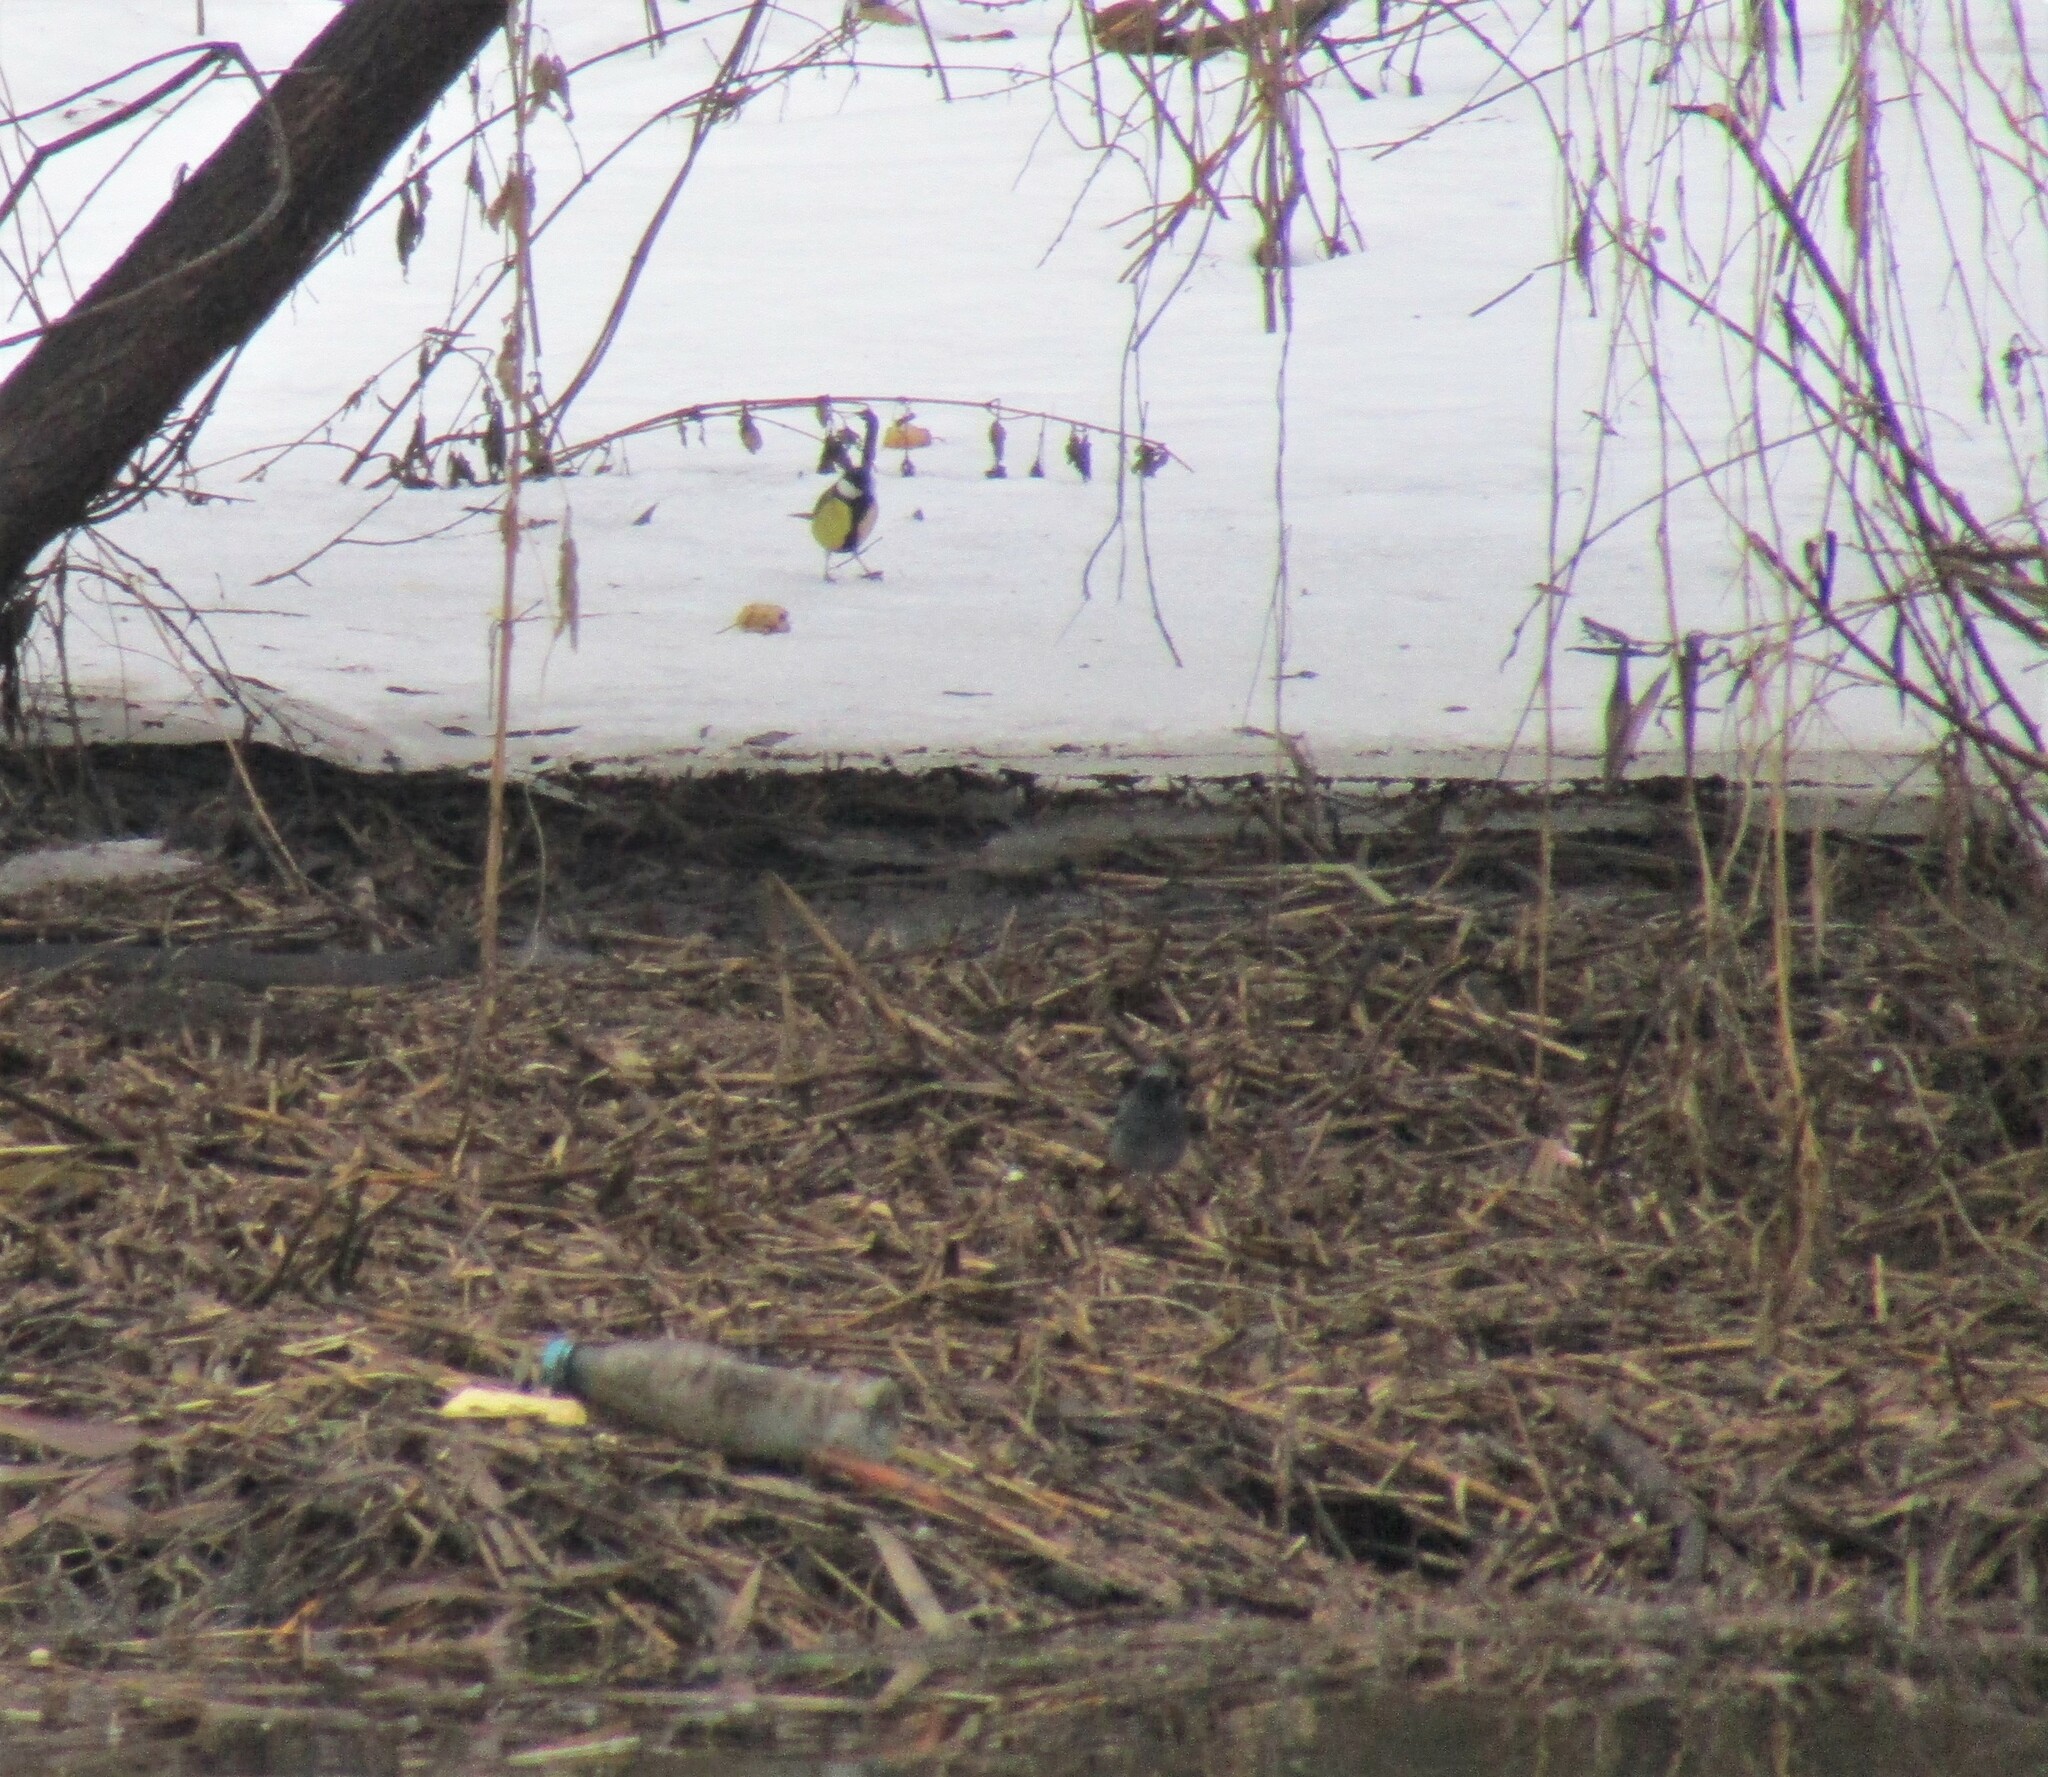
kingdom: Animalia
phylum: Chordata
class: Aves
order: Passeriformes
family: Muscicapidae
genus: Phoenicurus
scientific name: Phoenicurus ochruros
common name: Black redstart
